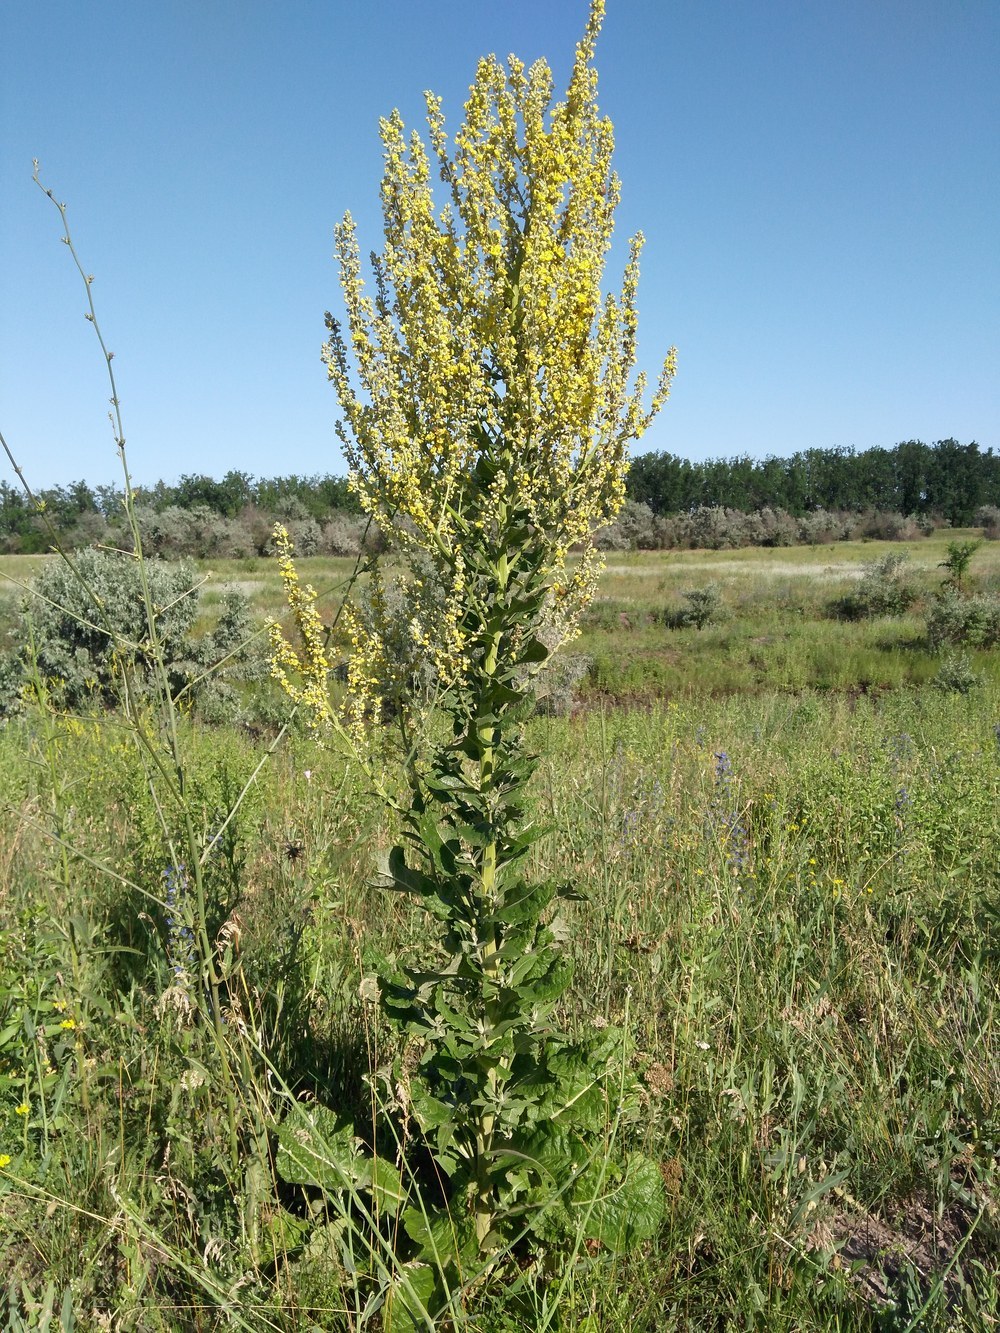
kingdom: Plantae
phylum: Tracheophyta
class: Magnoliopsida
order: Lamiales
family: Scrophulariaceae
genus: Verbascum
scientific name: Verbascum lychnitis
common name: White mullein
